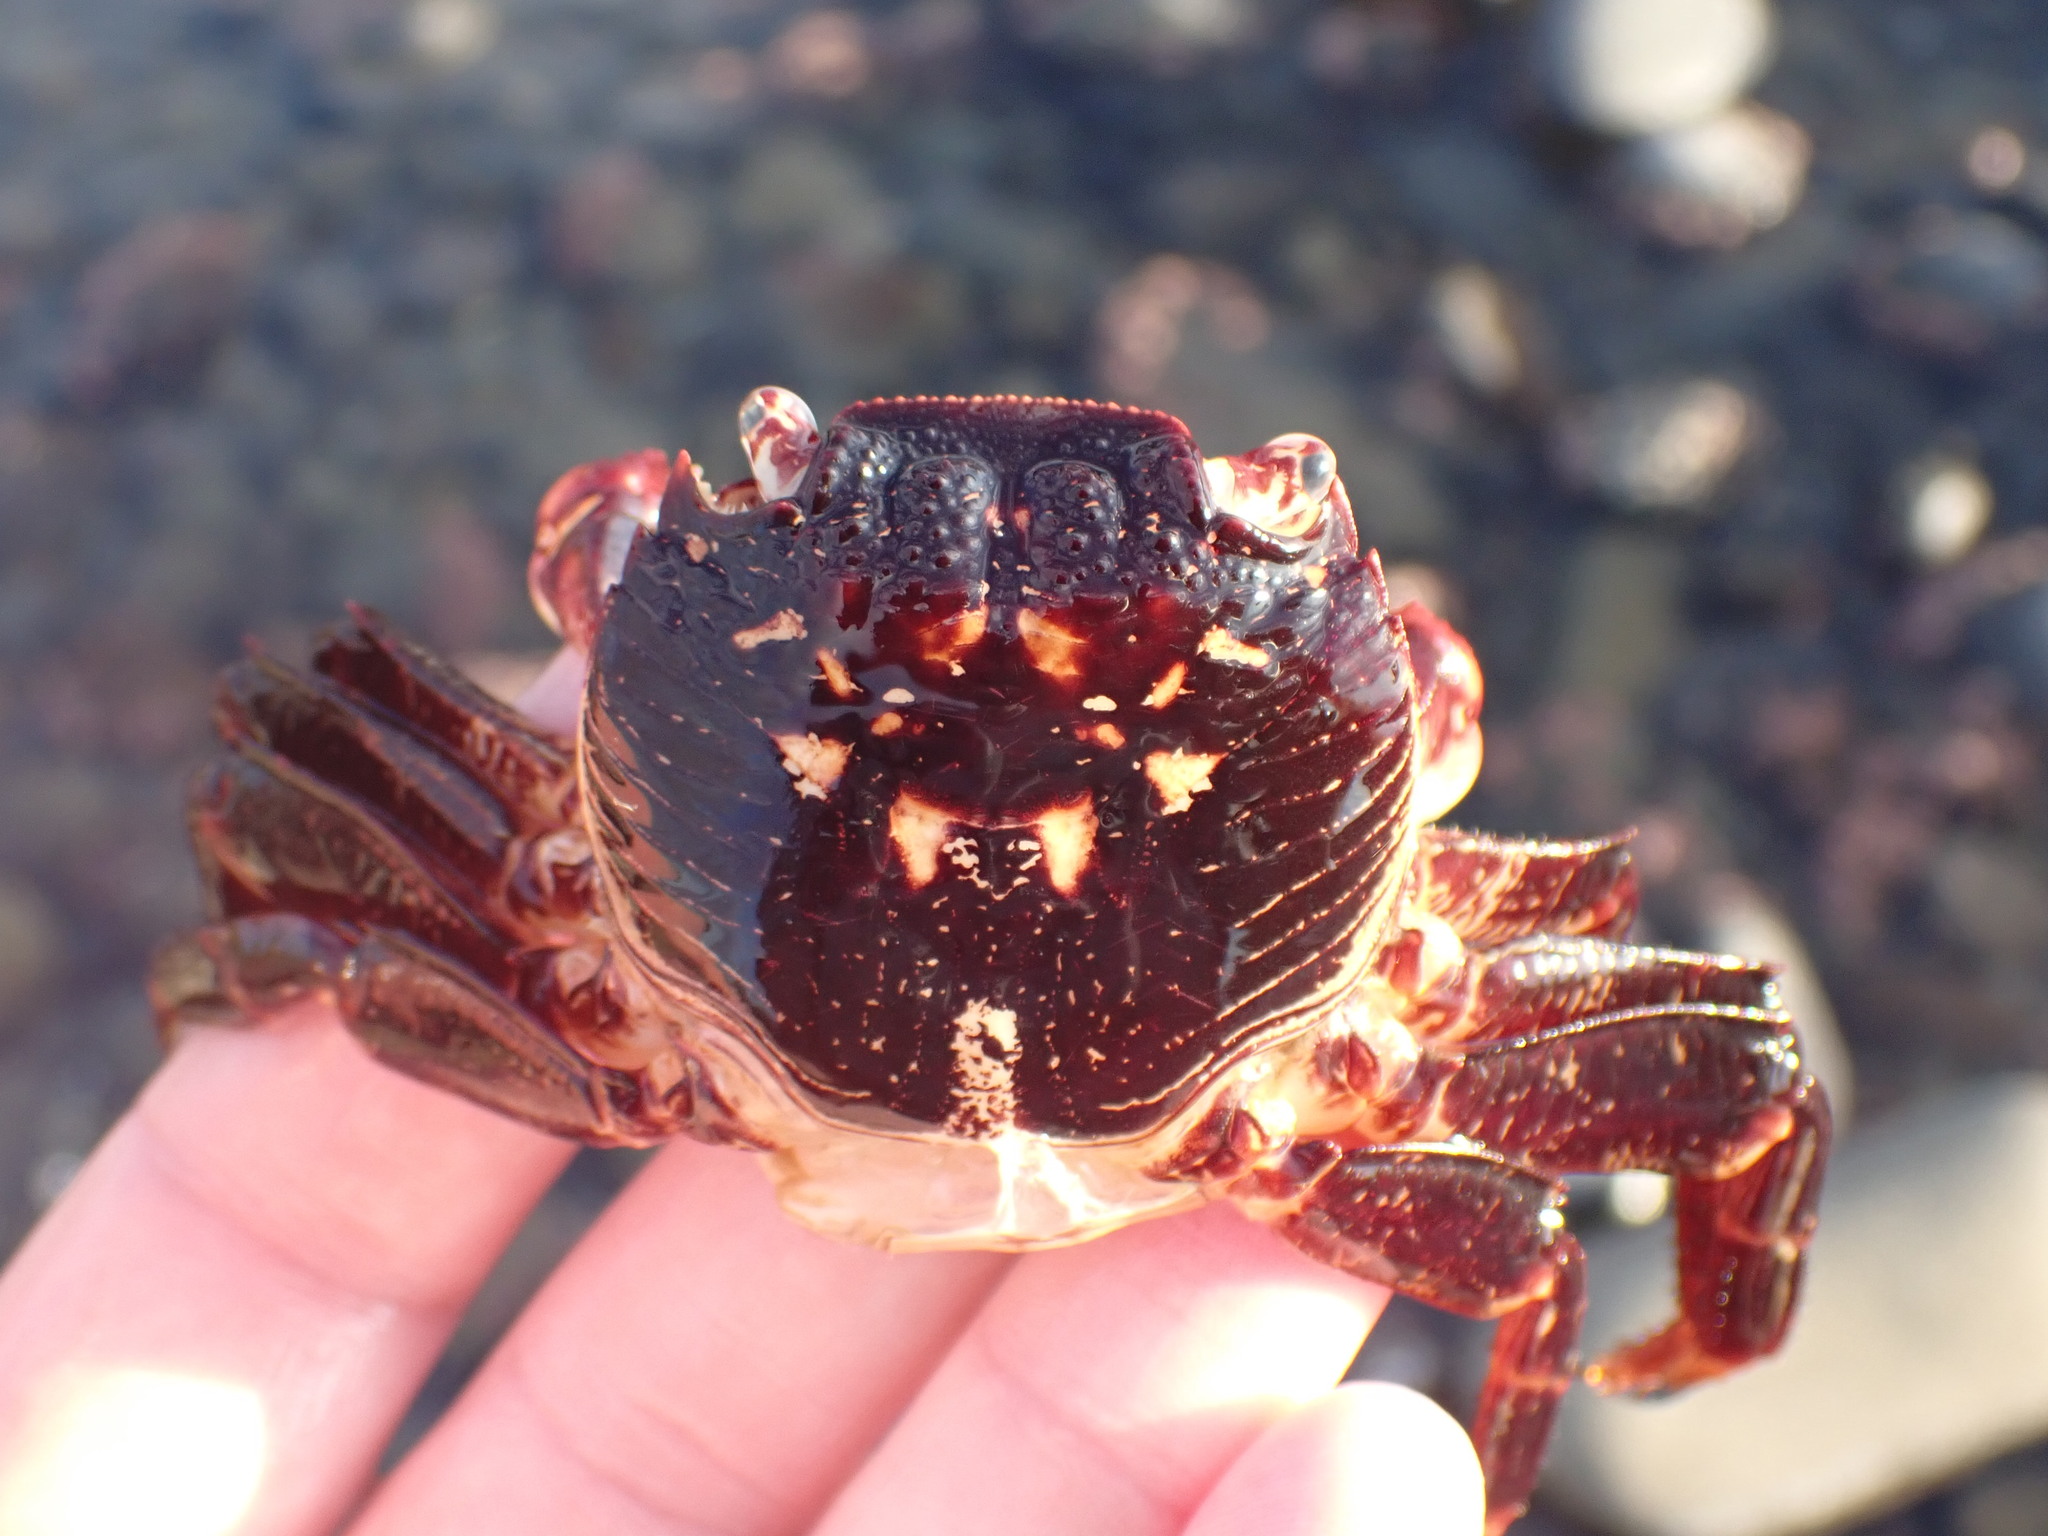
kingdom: Animalia
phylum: Arthropoda
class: Malacostraca
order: Decapoda
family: Grapsidae
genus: Leptograpsus
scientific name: Leptograpsus variegatus
